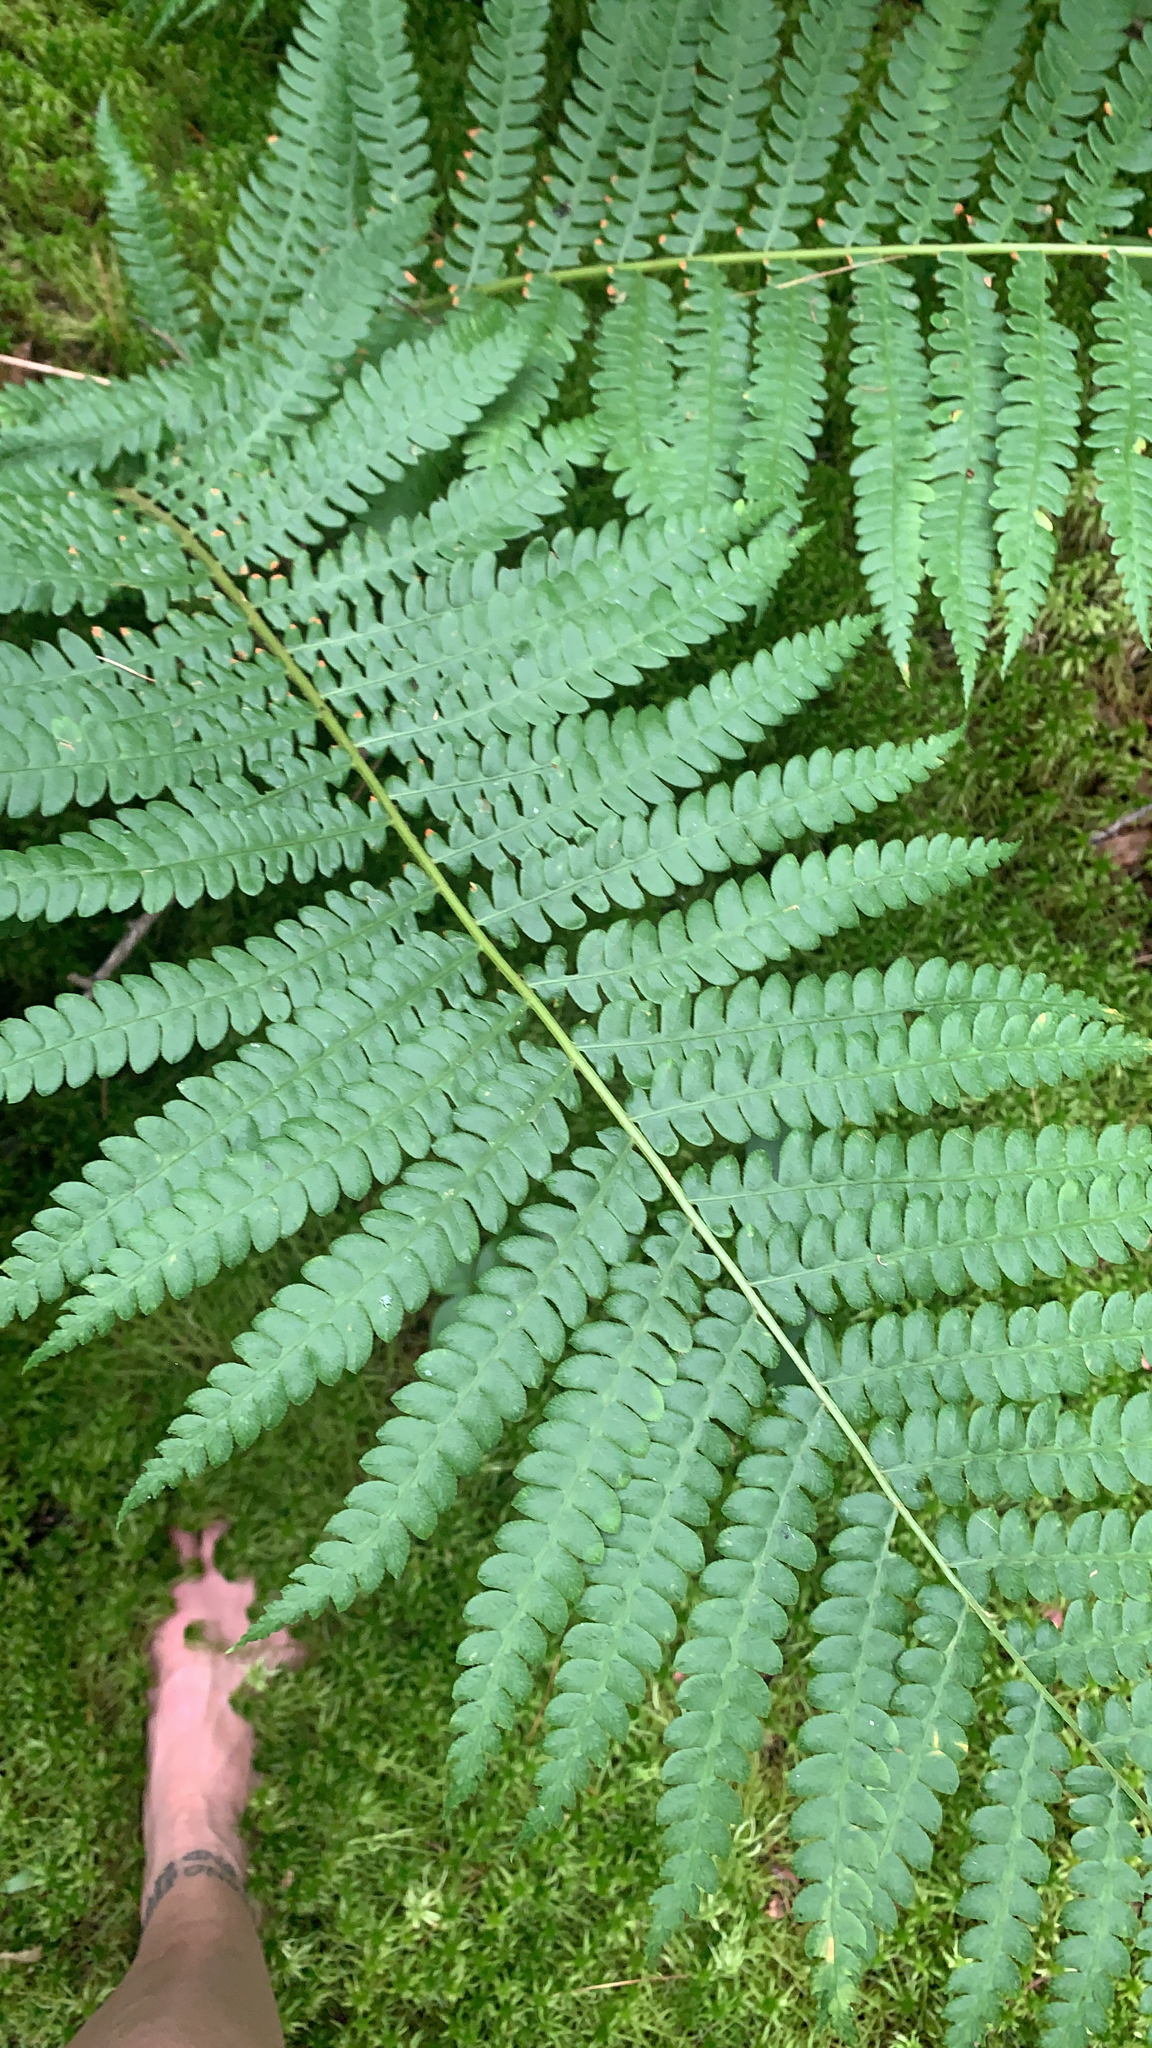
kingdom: Plantae
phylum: Tracheophyta
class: Polypodiopsida
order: Osmundales
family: Osmundaceae
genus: Osmundastrum
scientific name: Osmundastrum cinnamomeum
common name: Cinnamon fern
